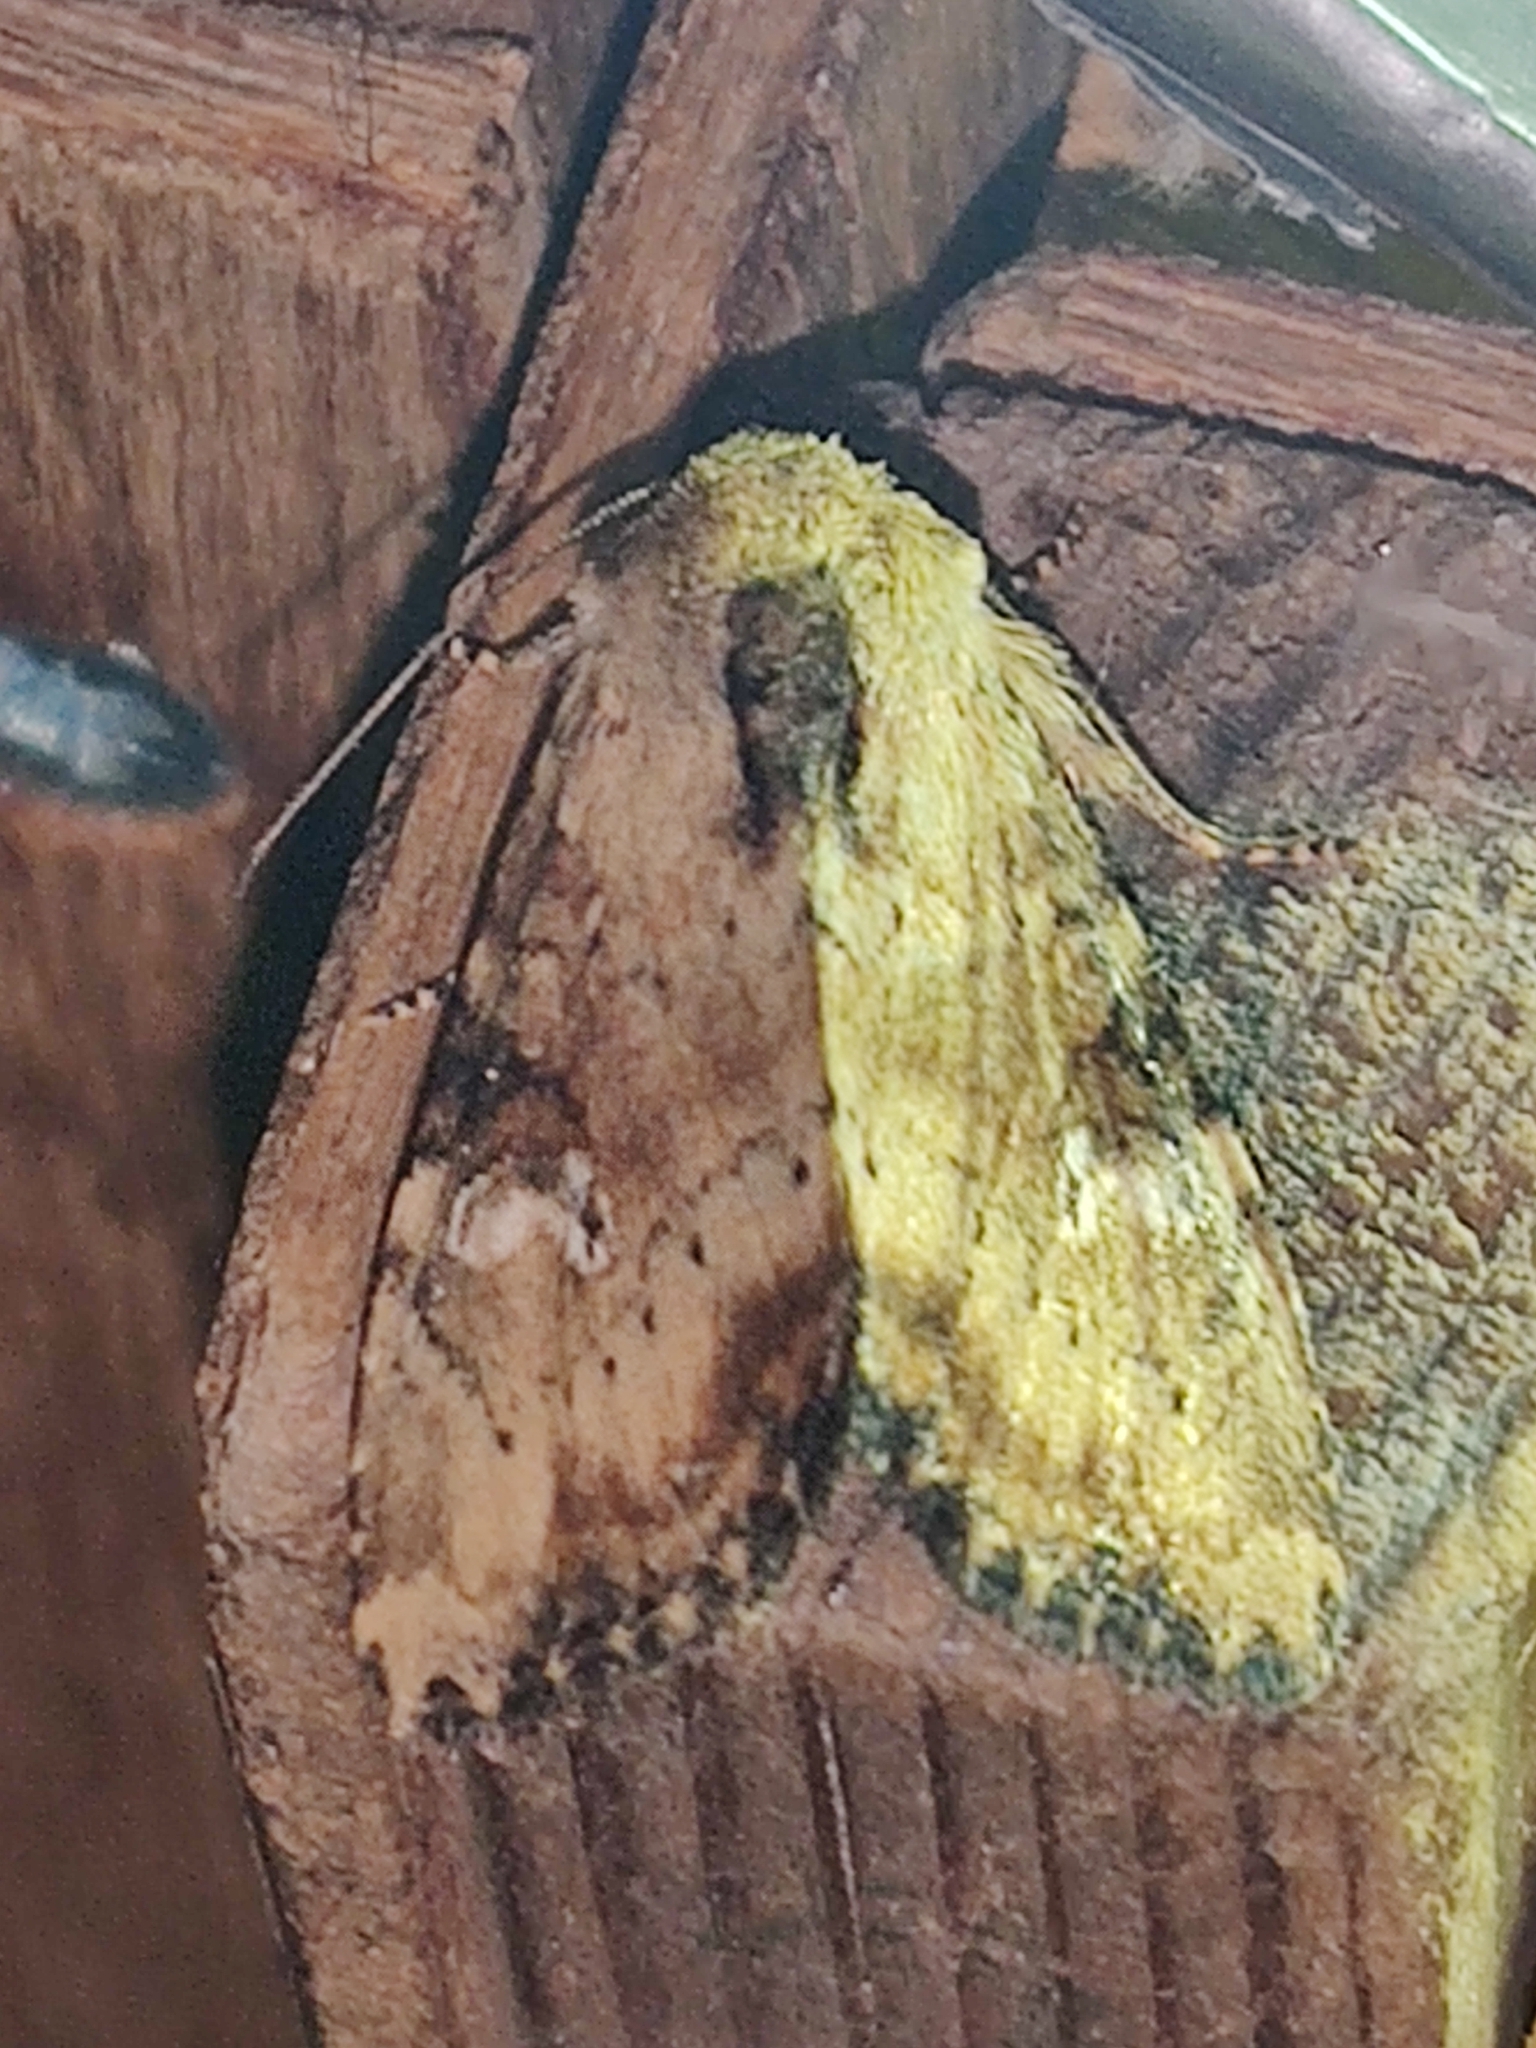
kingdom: Animalia
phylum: Arthropoda
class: Insecta
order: Lepidoptera
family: Noctuidae
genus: Loscopia
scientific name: Loscopia scolopacina
